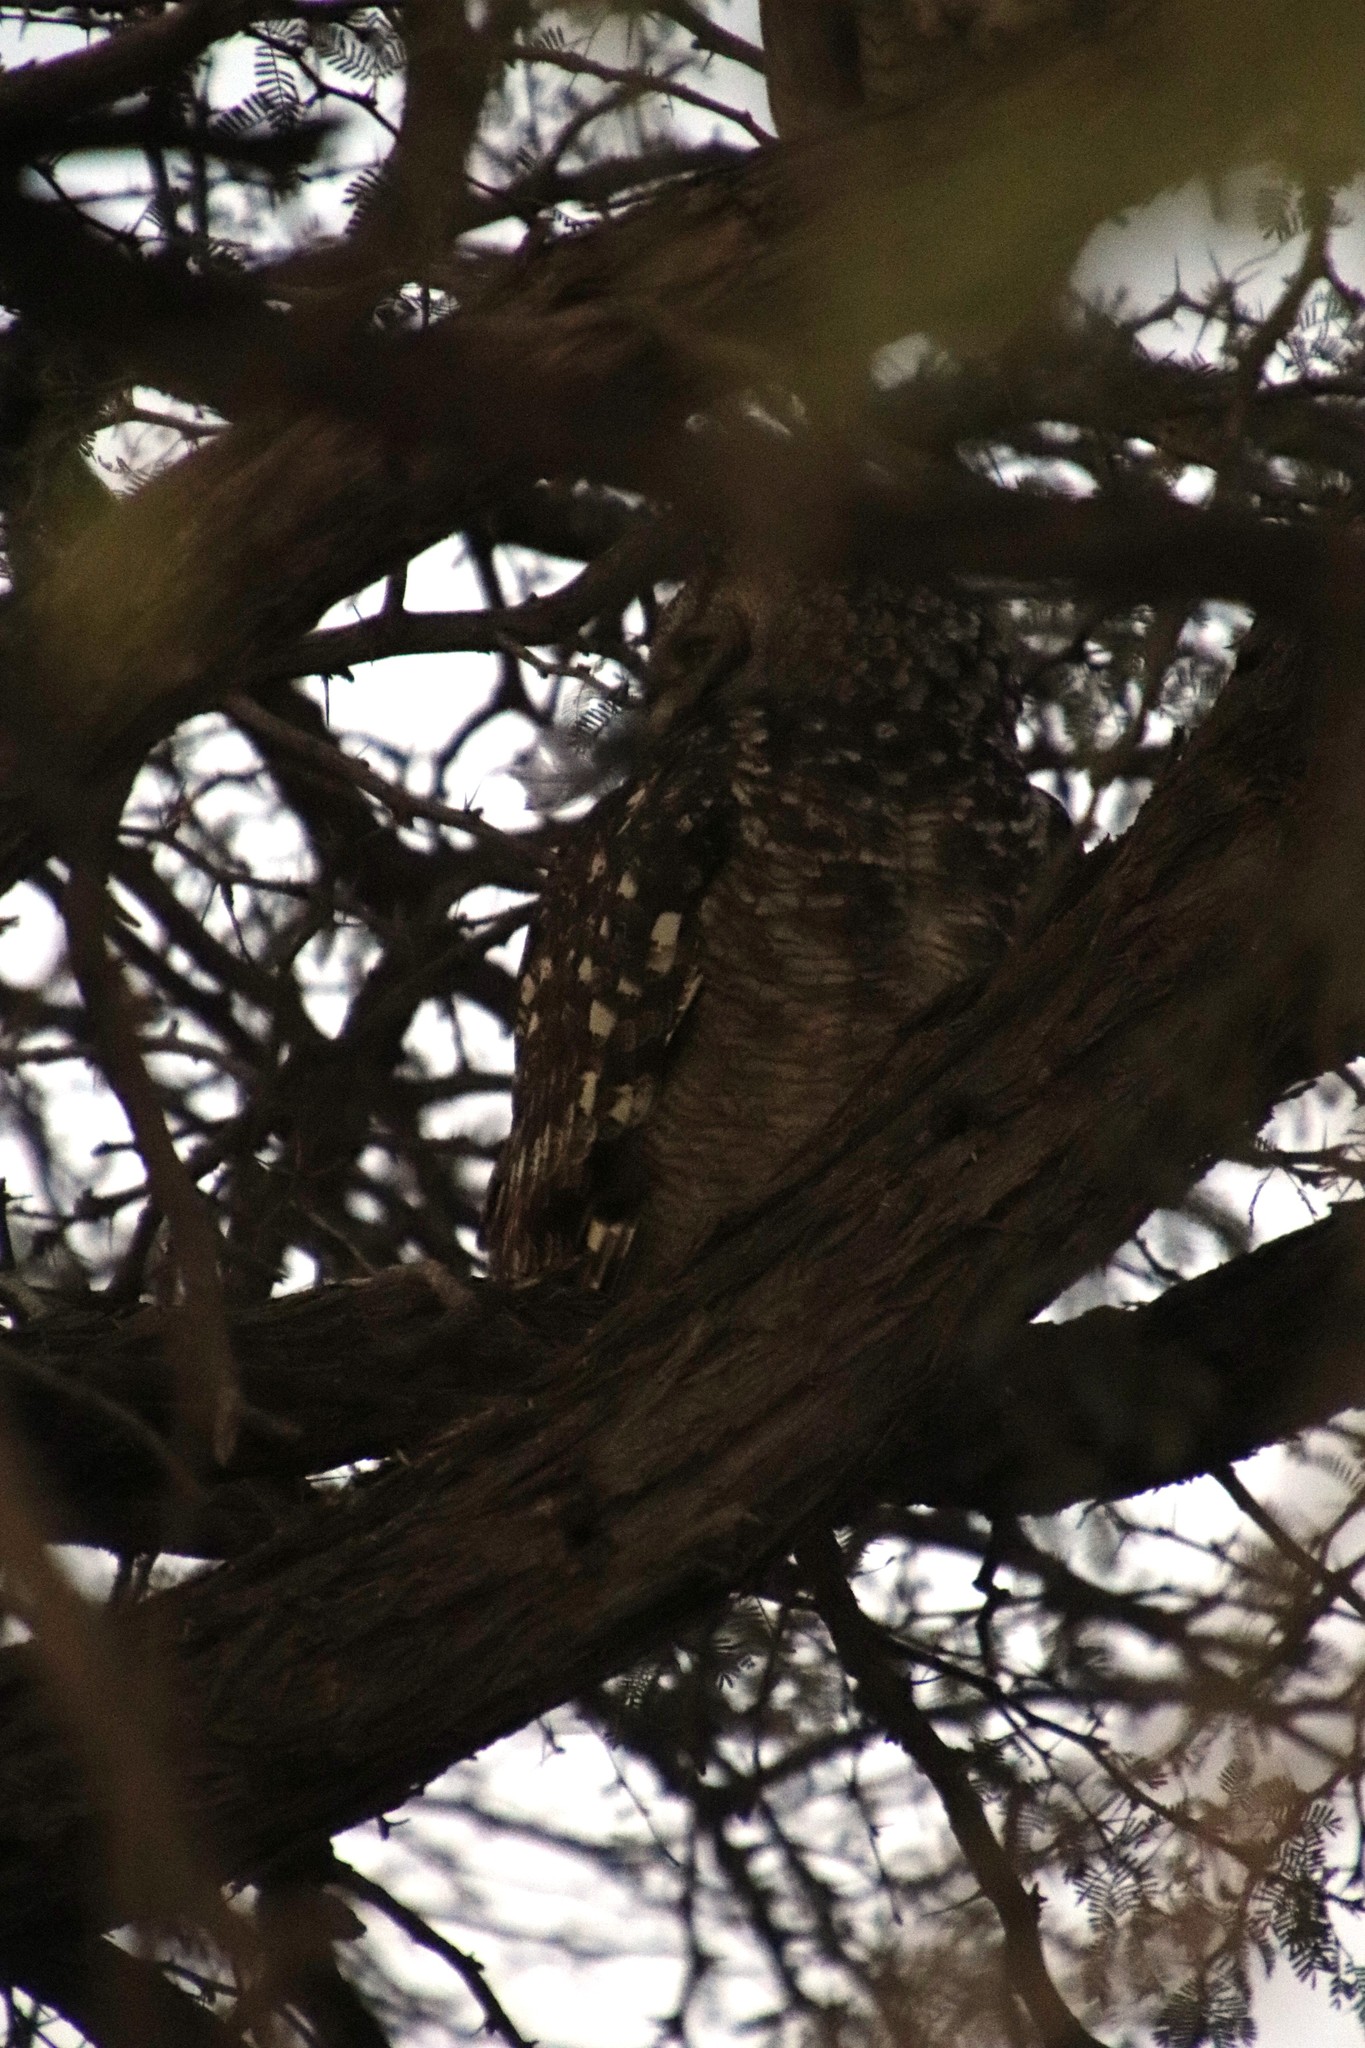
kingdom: Animalia
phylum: Chordata
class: Aves
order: Strigiformes
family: Strigidae
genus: Bubo
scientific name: Bubo africanus
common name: Spotted eagle-owl
